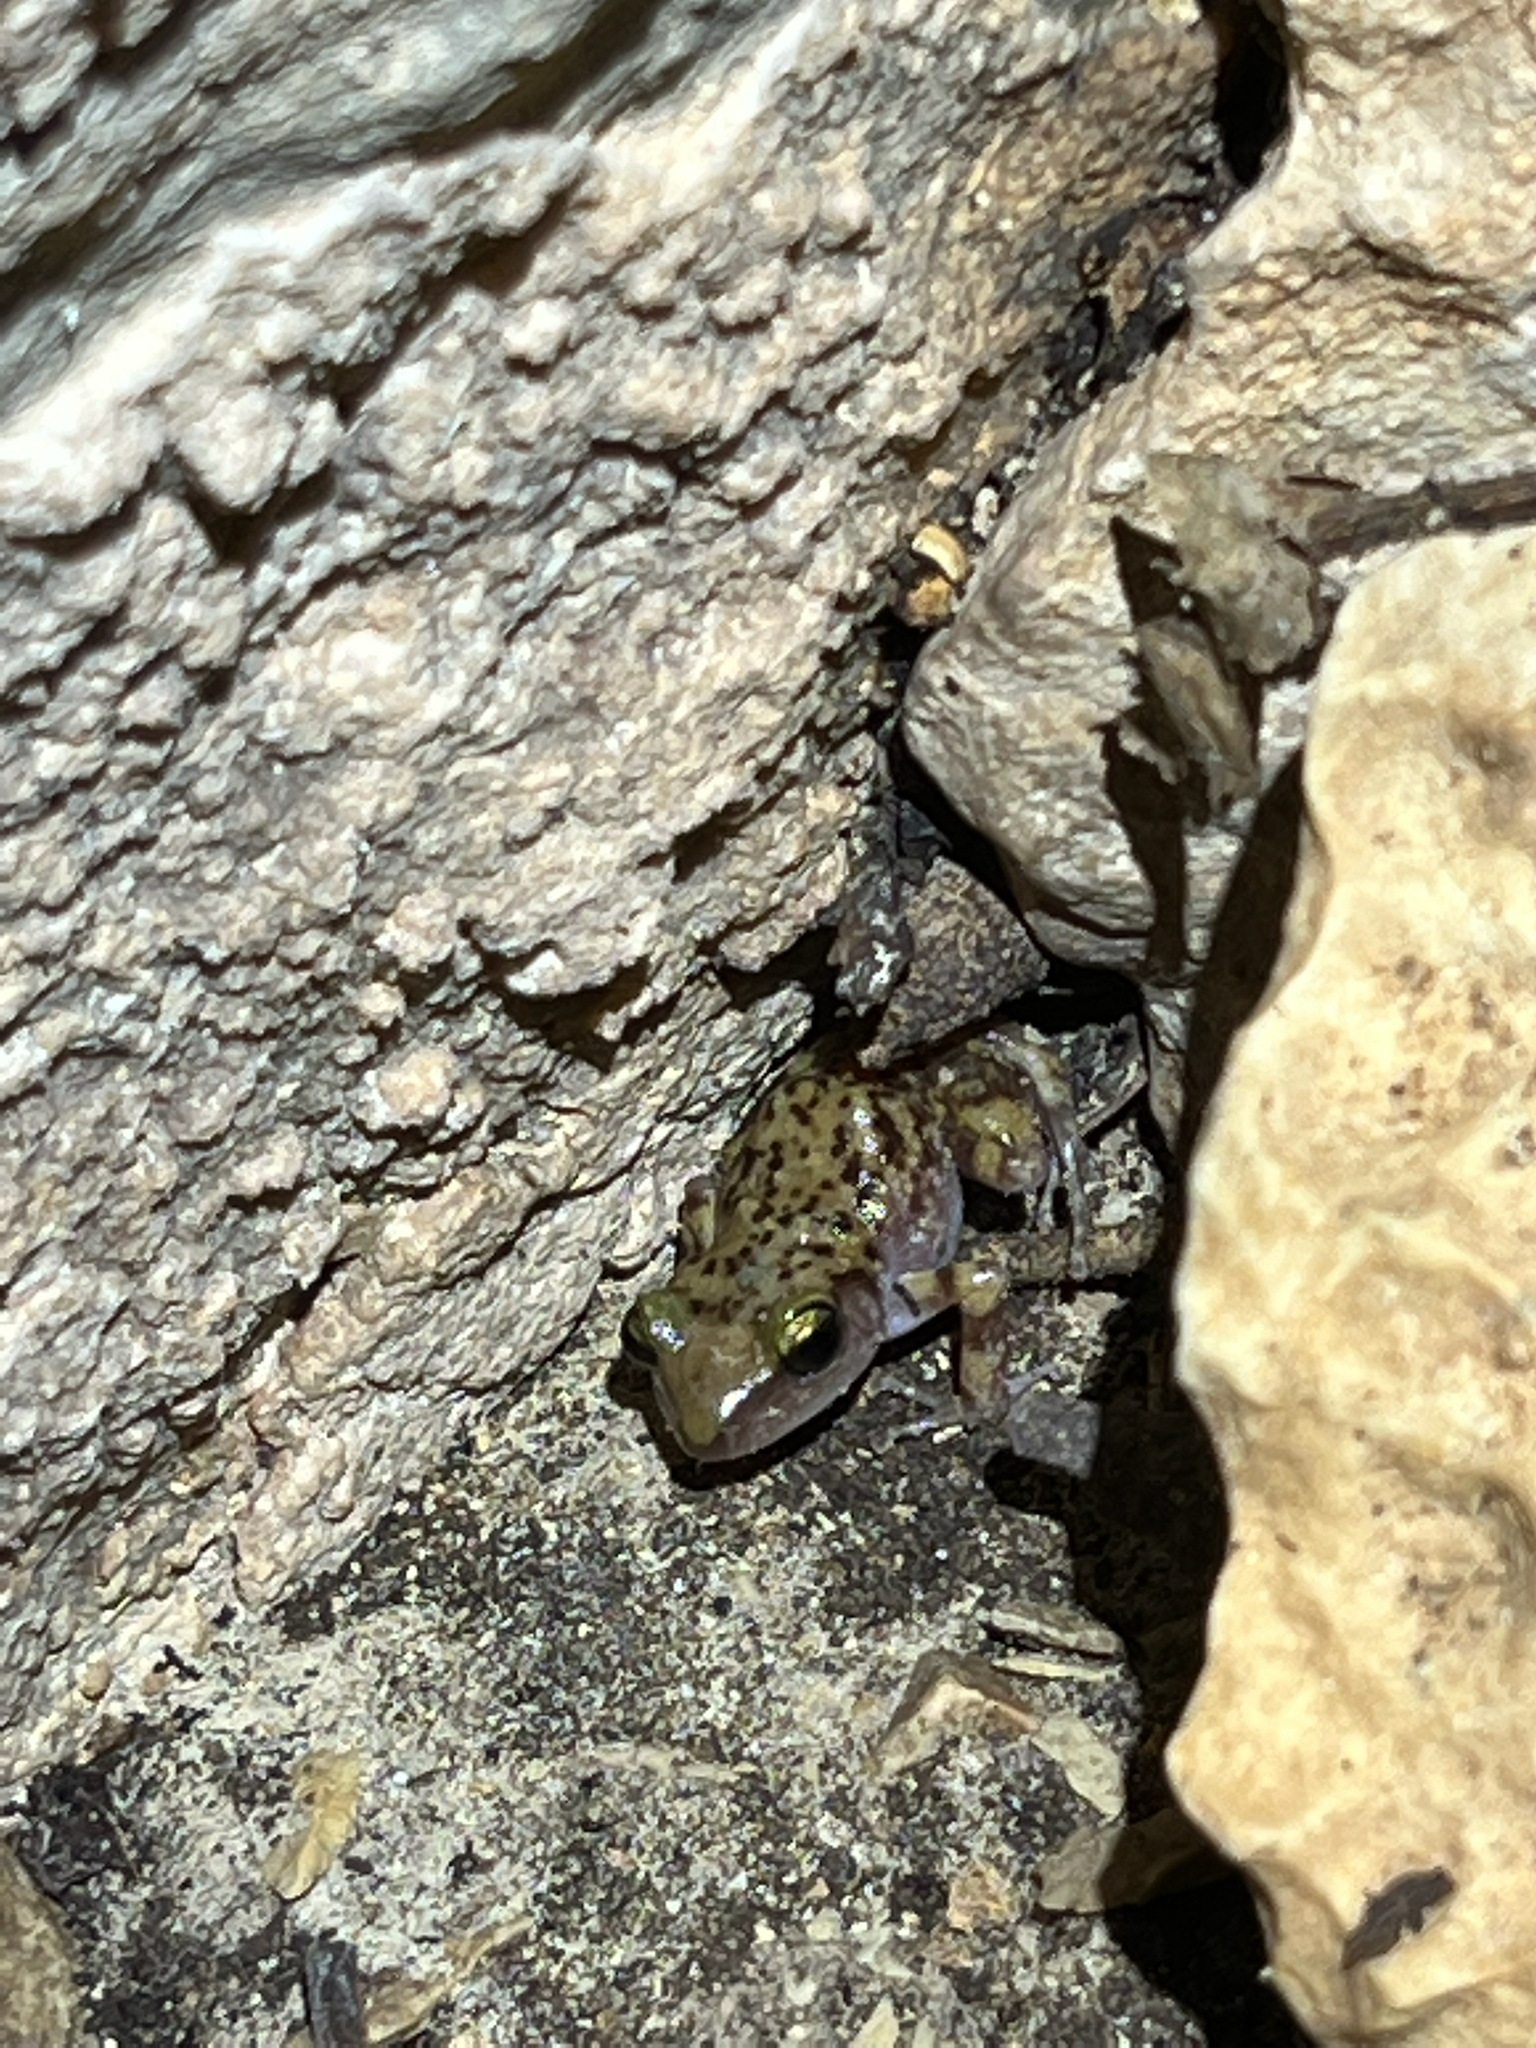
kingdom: Animalia
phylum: Chordata
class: Amphibia
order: Anura
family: Eleutherodactylidae
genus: Eleutherodactylus
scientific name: Eleutherodactylus marnockii
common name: Cliff chirping frog
